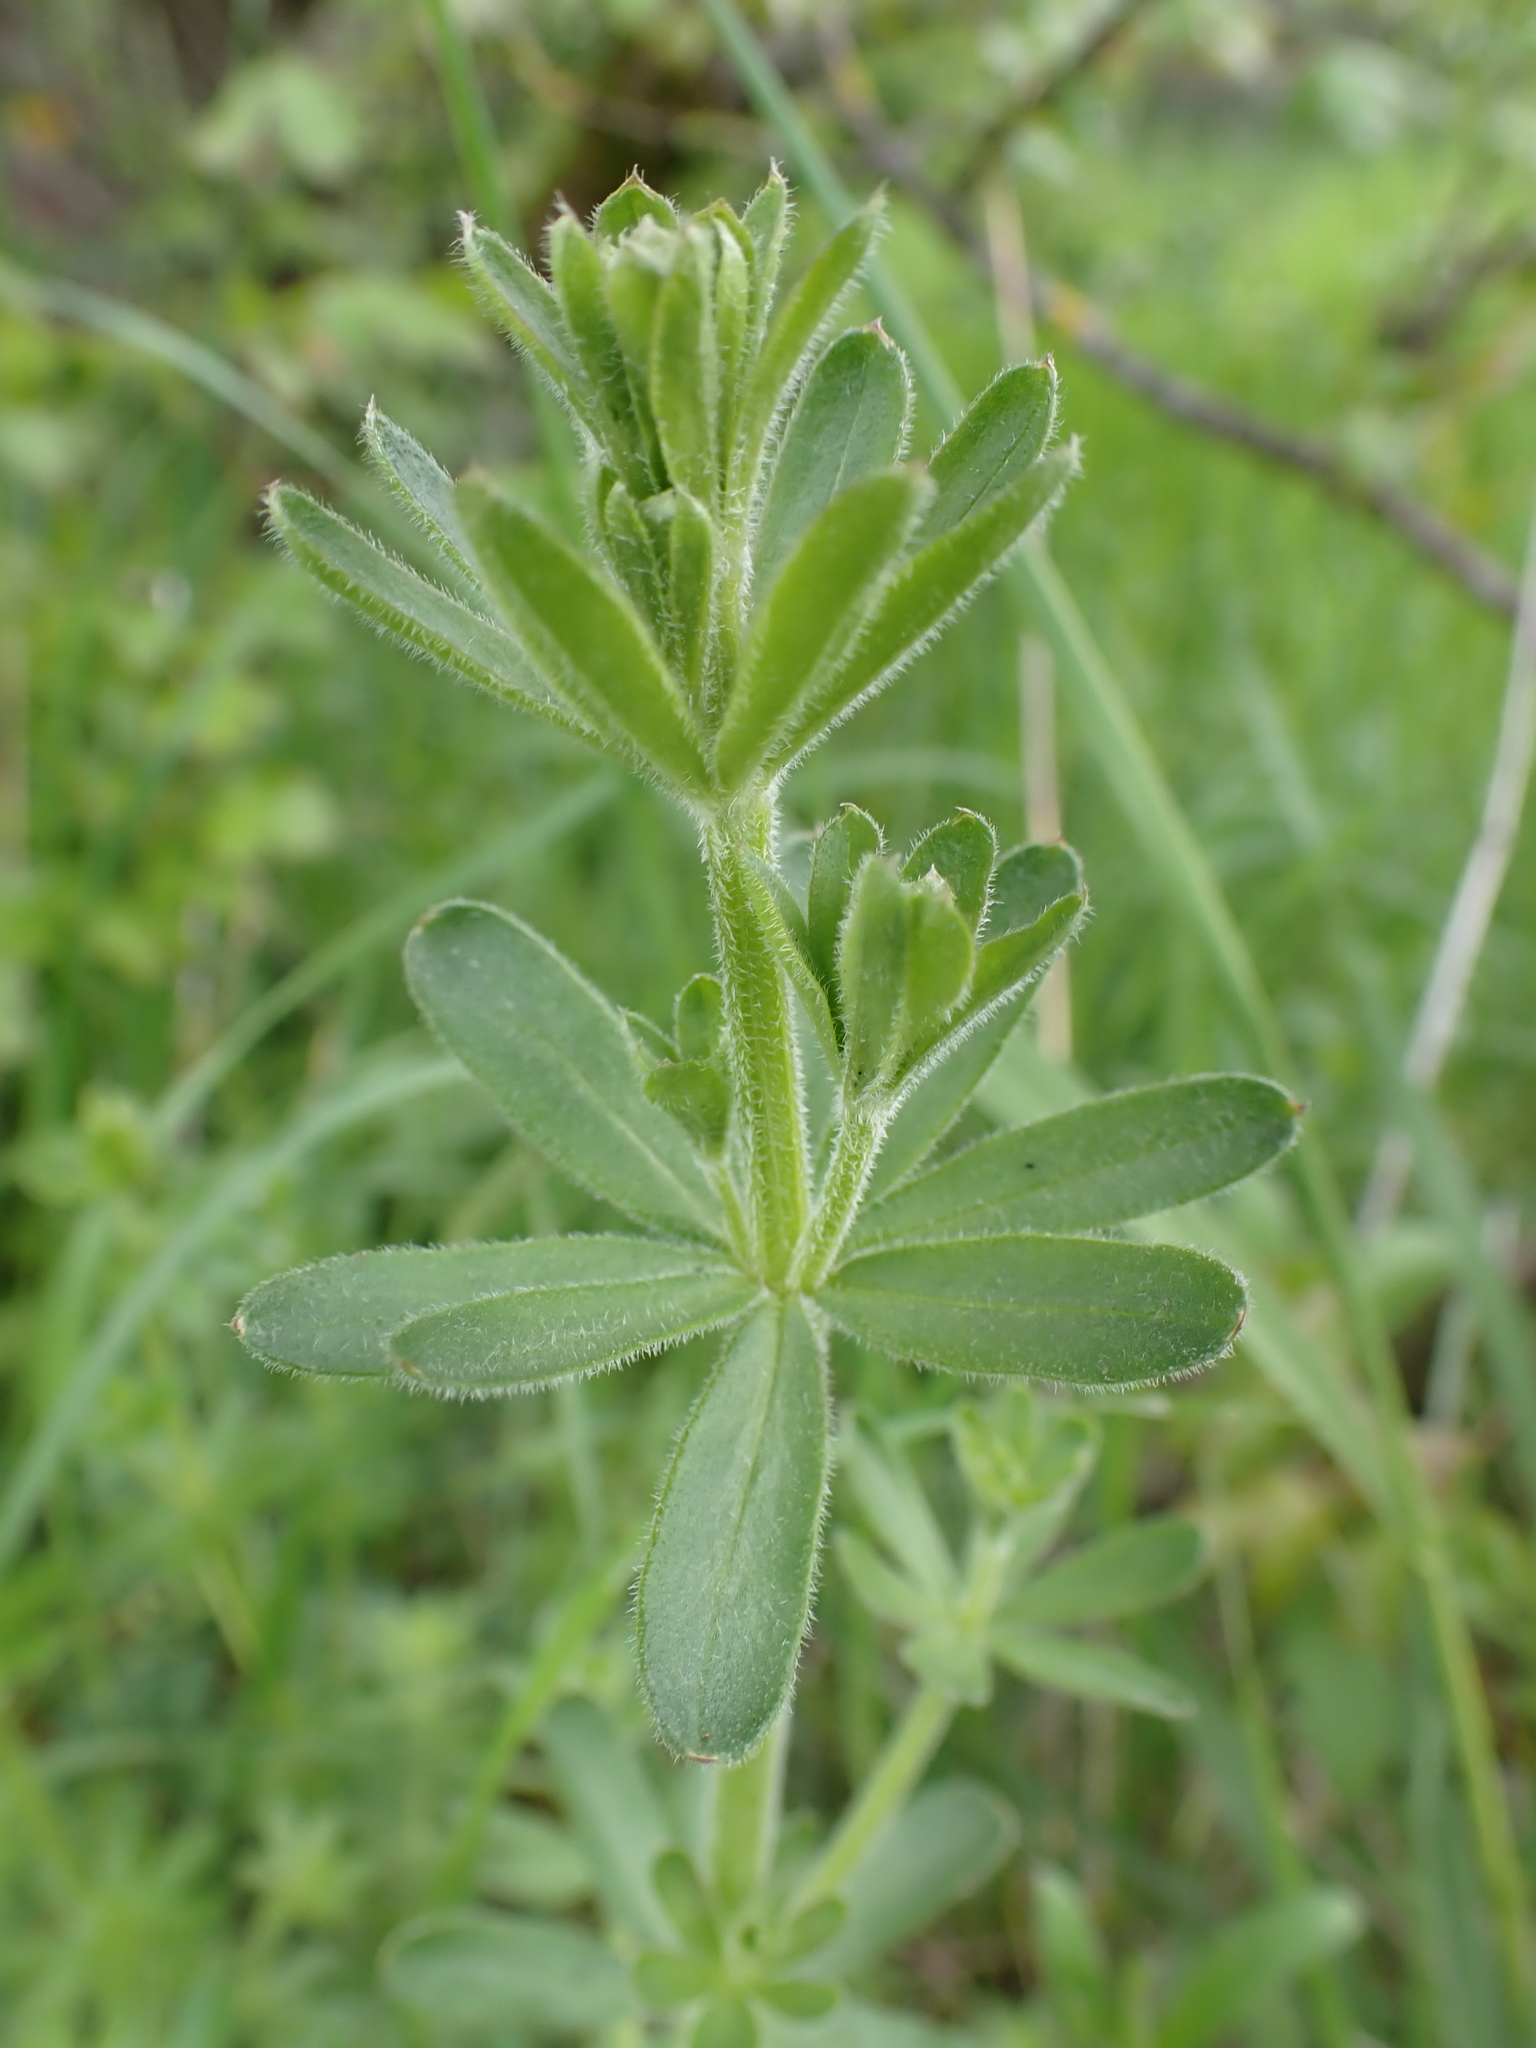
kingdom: Plantae
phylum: Tracheophyta
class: Magnoliopsida
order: Gentianales
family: Rubiaceae
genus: Galium
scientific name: Galium sylvaticum
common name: Wood bedstraw
